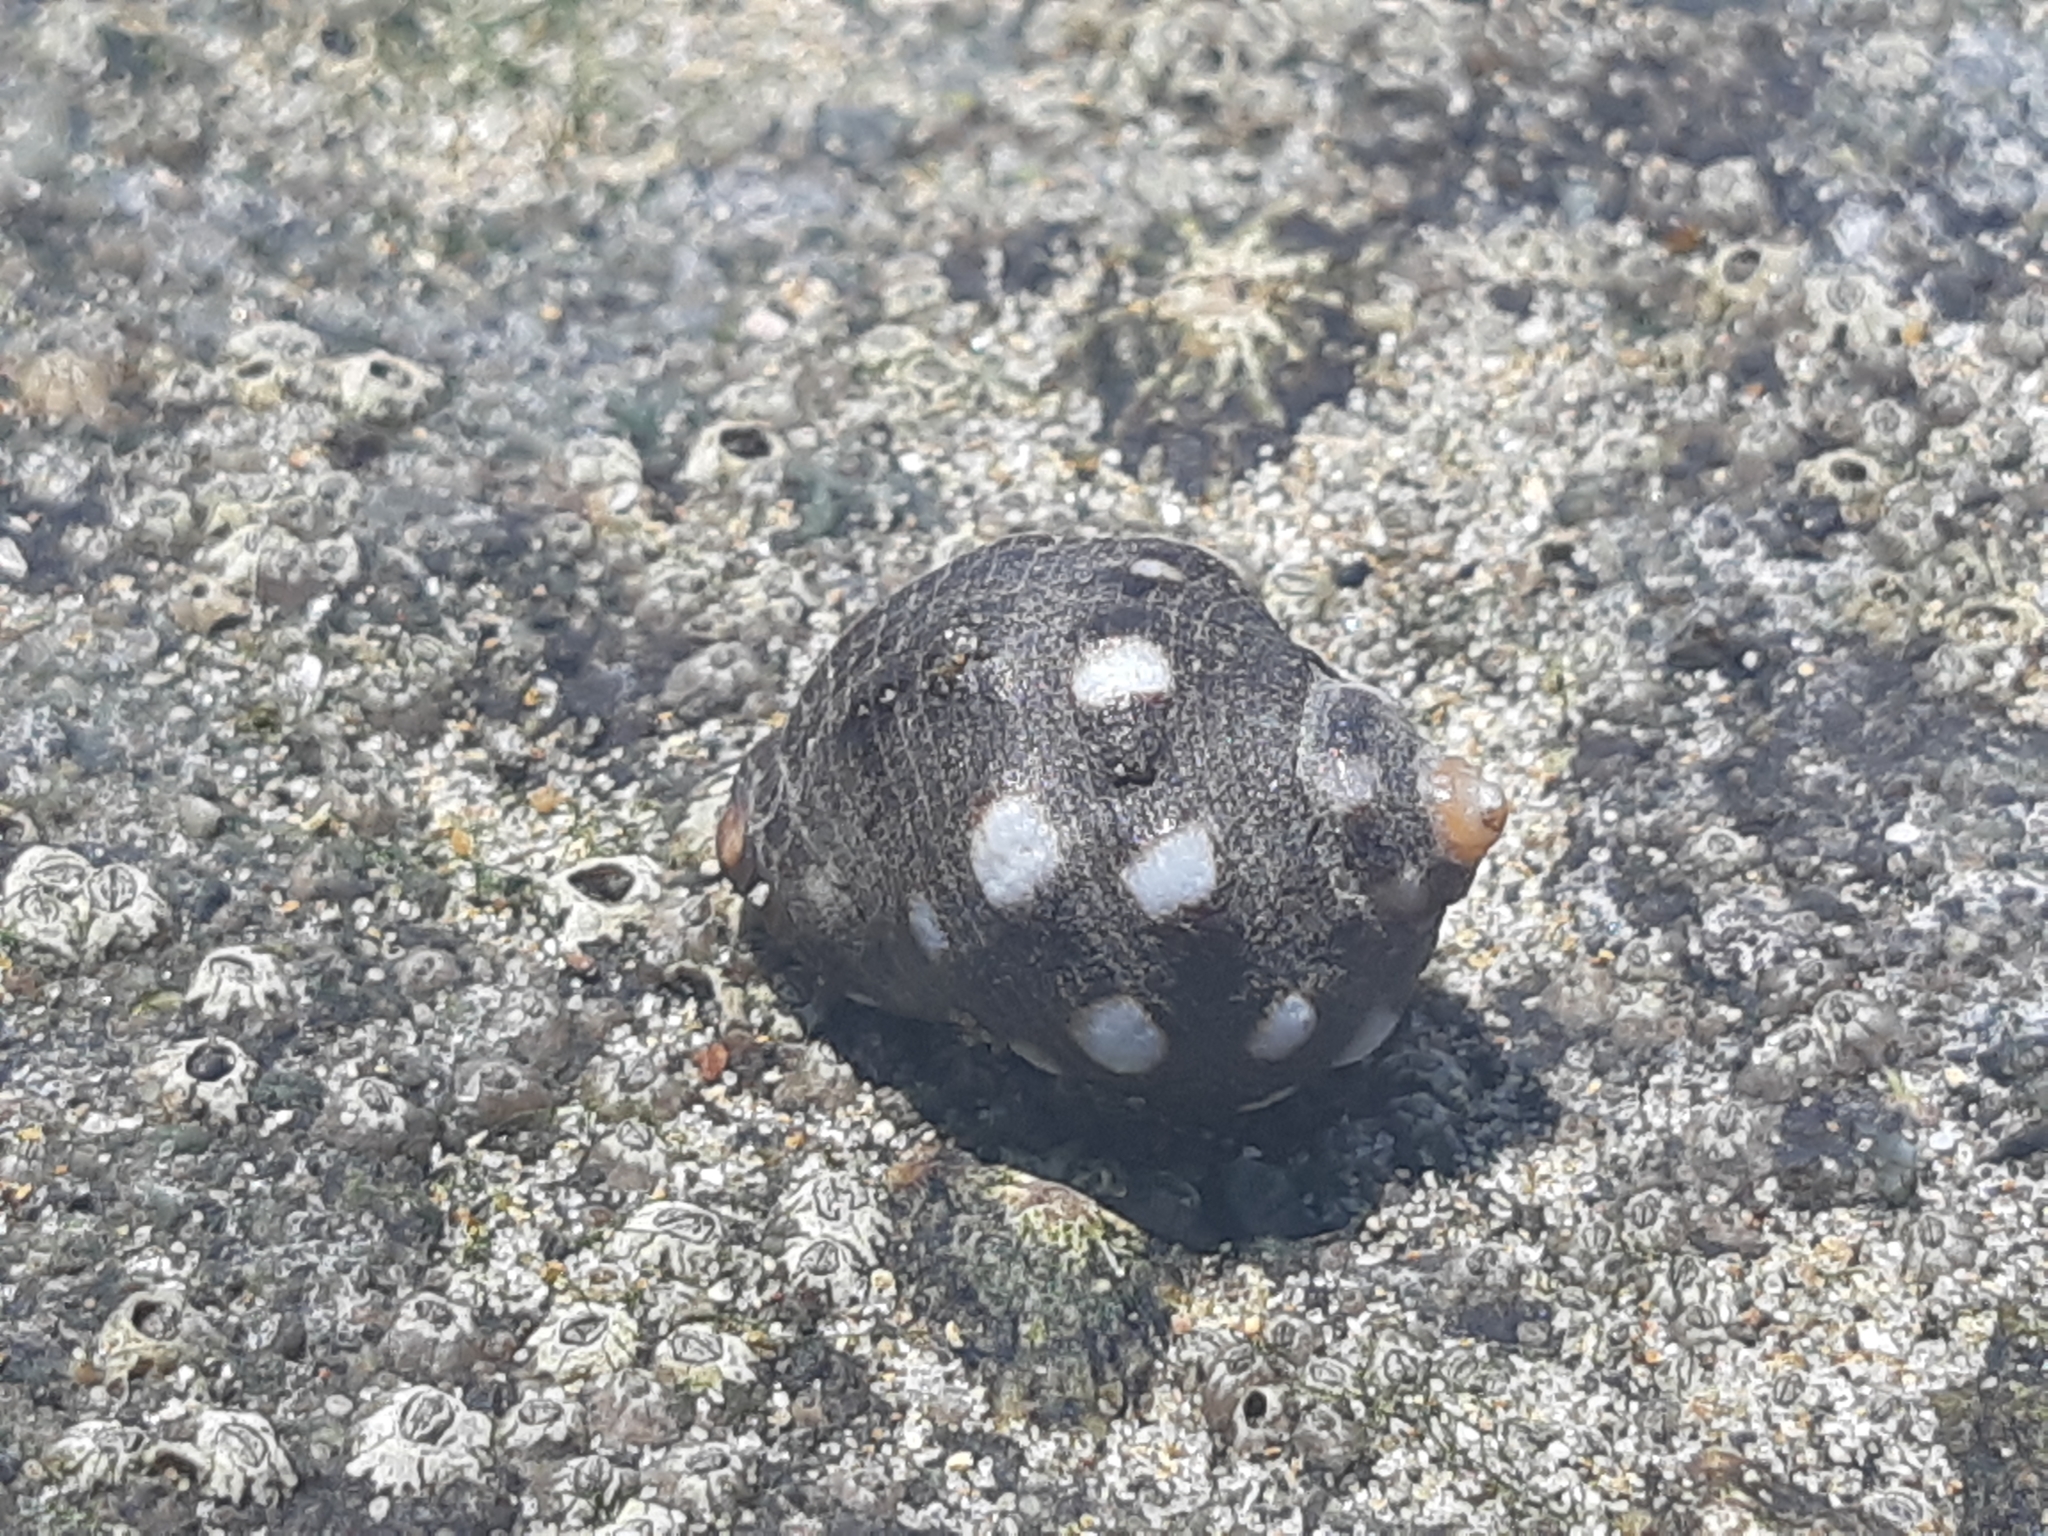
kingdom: Animalia
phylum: Mollusca
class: Gastropoda
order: Neogastropoda
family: Muricidae
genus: Acanthais
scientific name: Acanthais brevidentata
